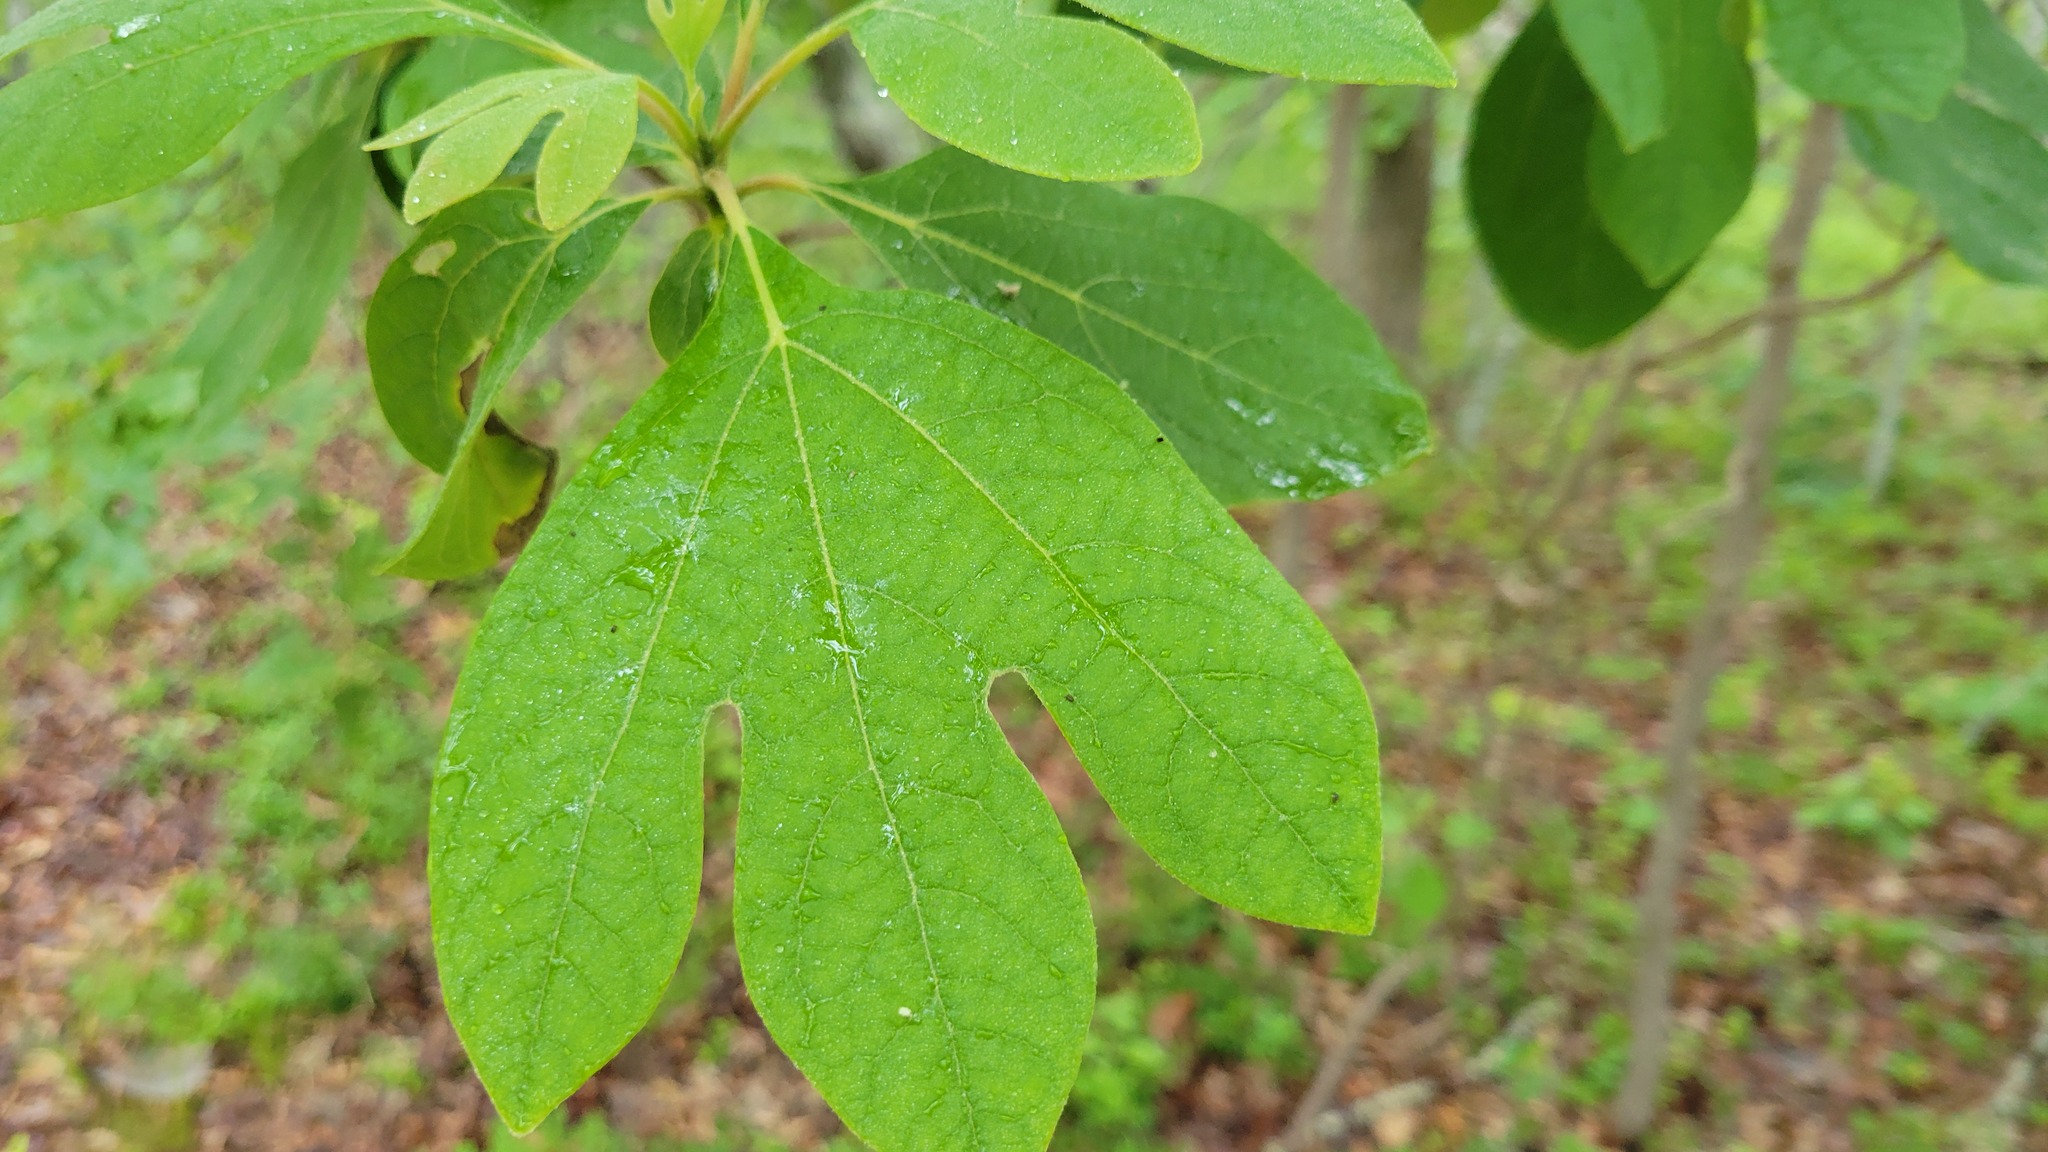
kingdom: Plantae
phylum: Tracheophyta
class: Magnoliopsida
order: Laurales
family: Lauraceae
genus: Sassafras
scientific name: Sassafras albidum
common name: Sassafras
